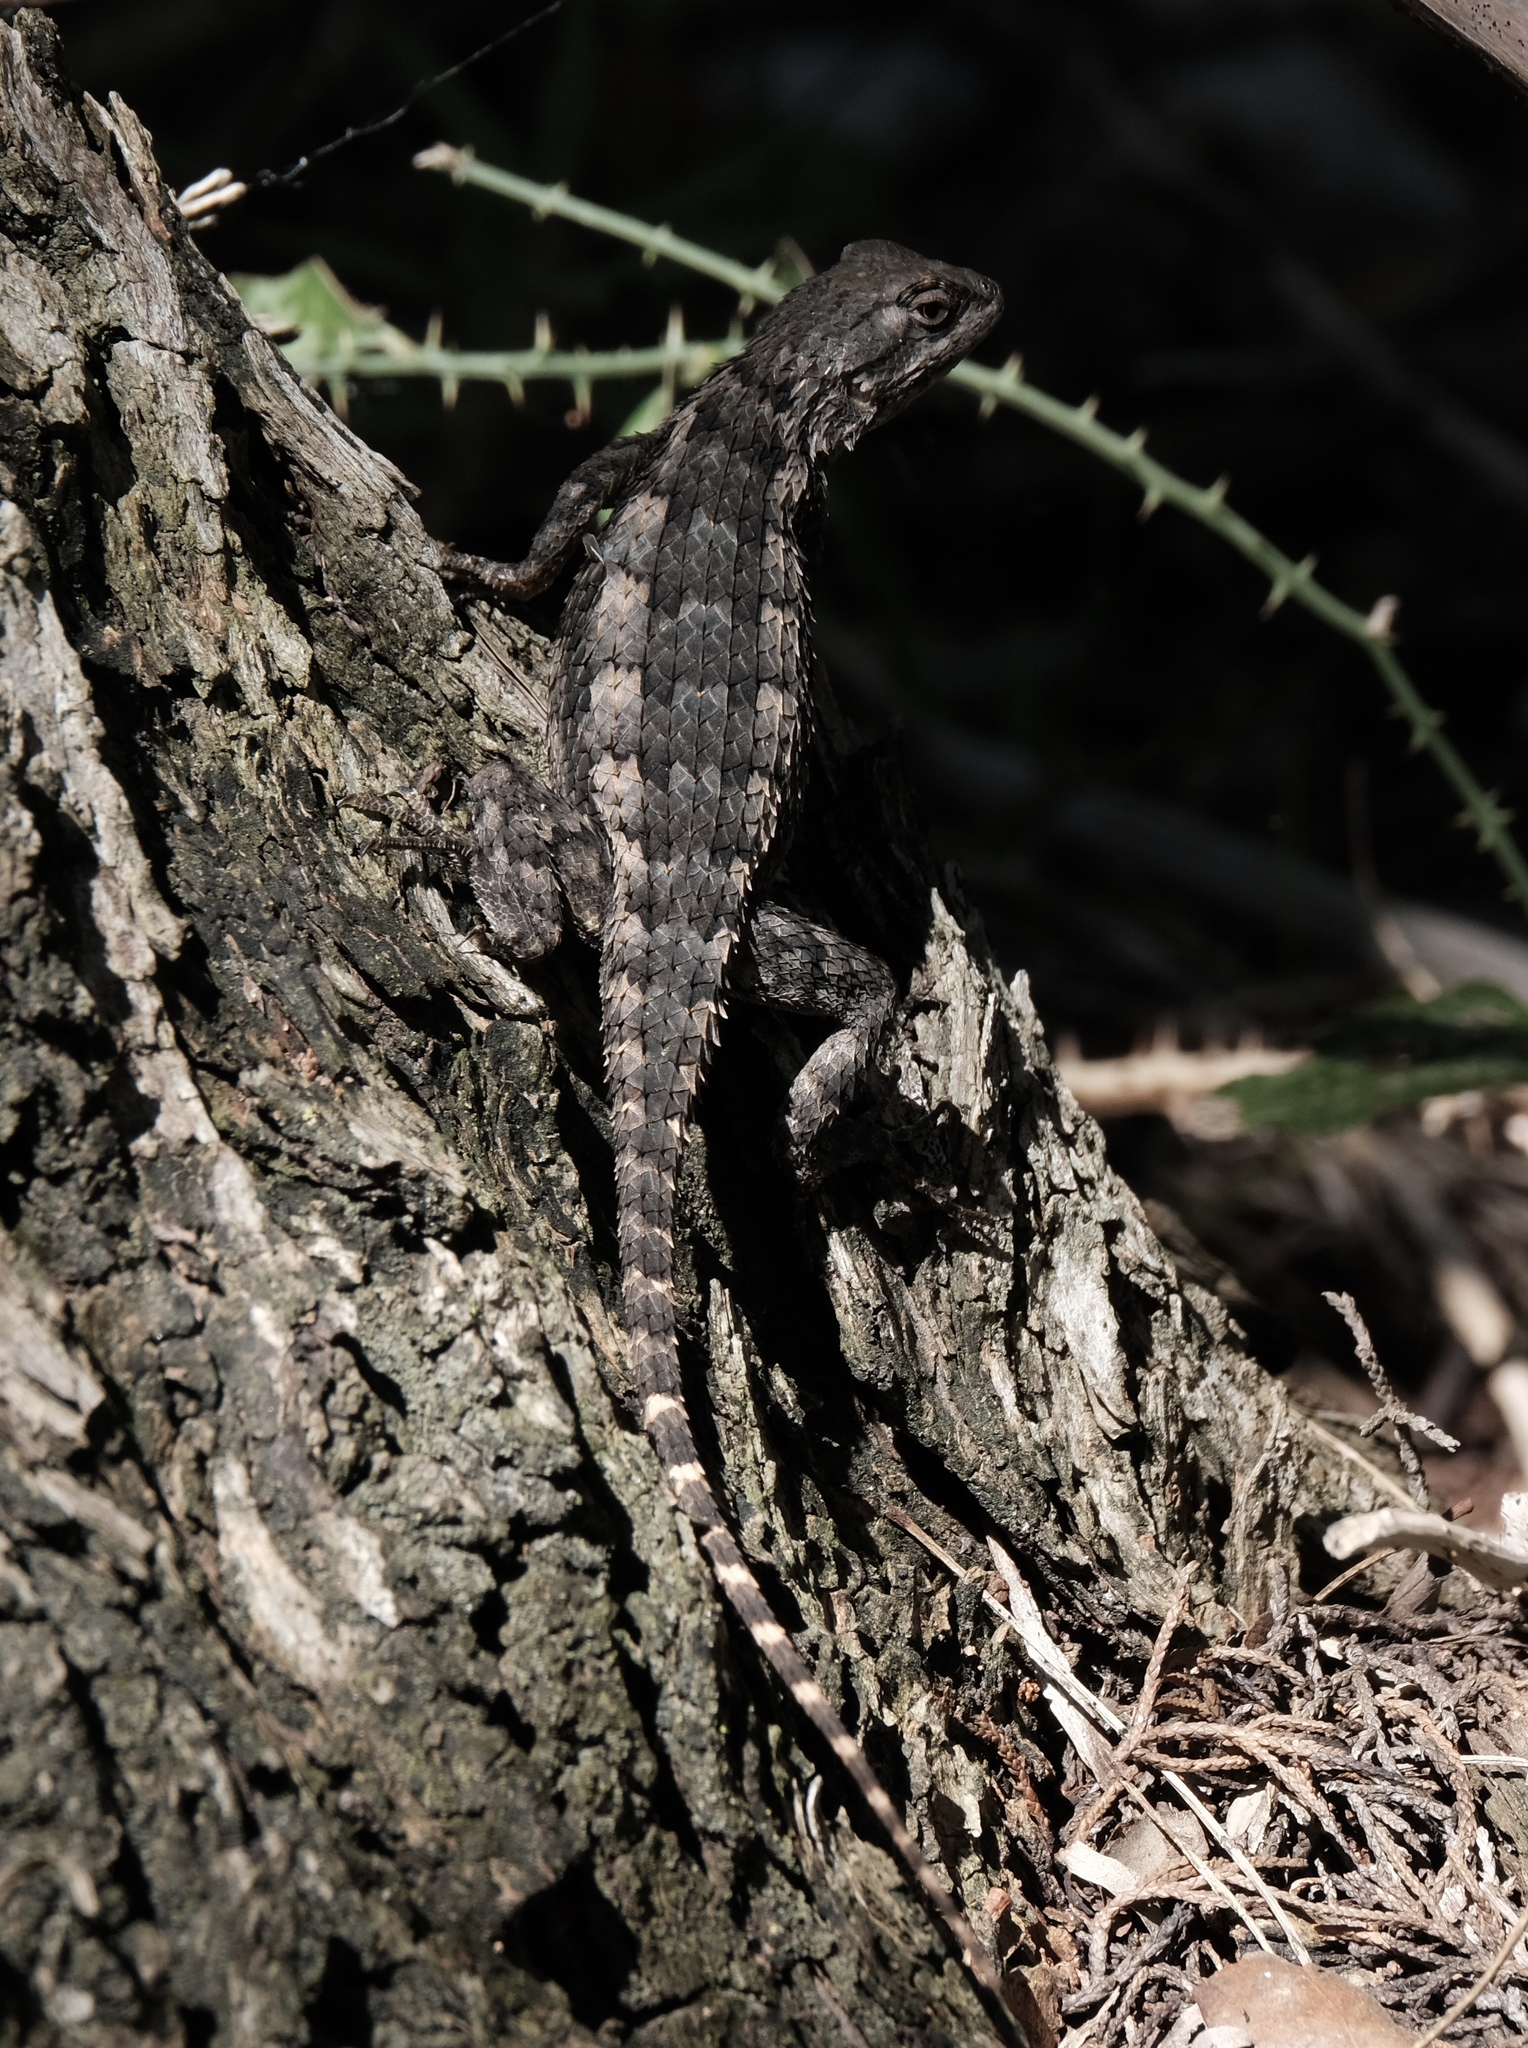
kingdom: Animalia
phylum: Chordata
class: Squamata
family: Phrynosomatidae
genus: Sceloporus
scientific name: Sceloporus olivaceus
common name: Texas spiny lizard
